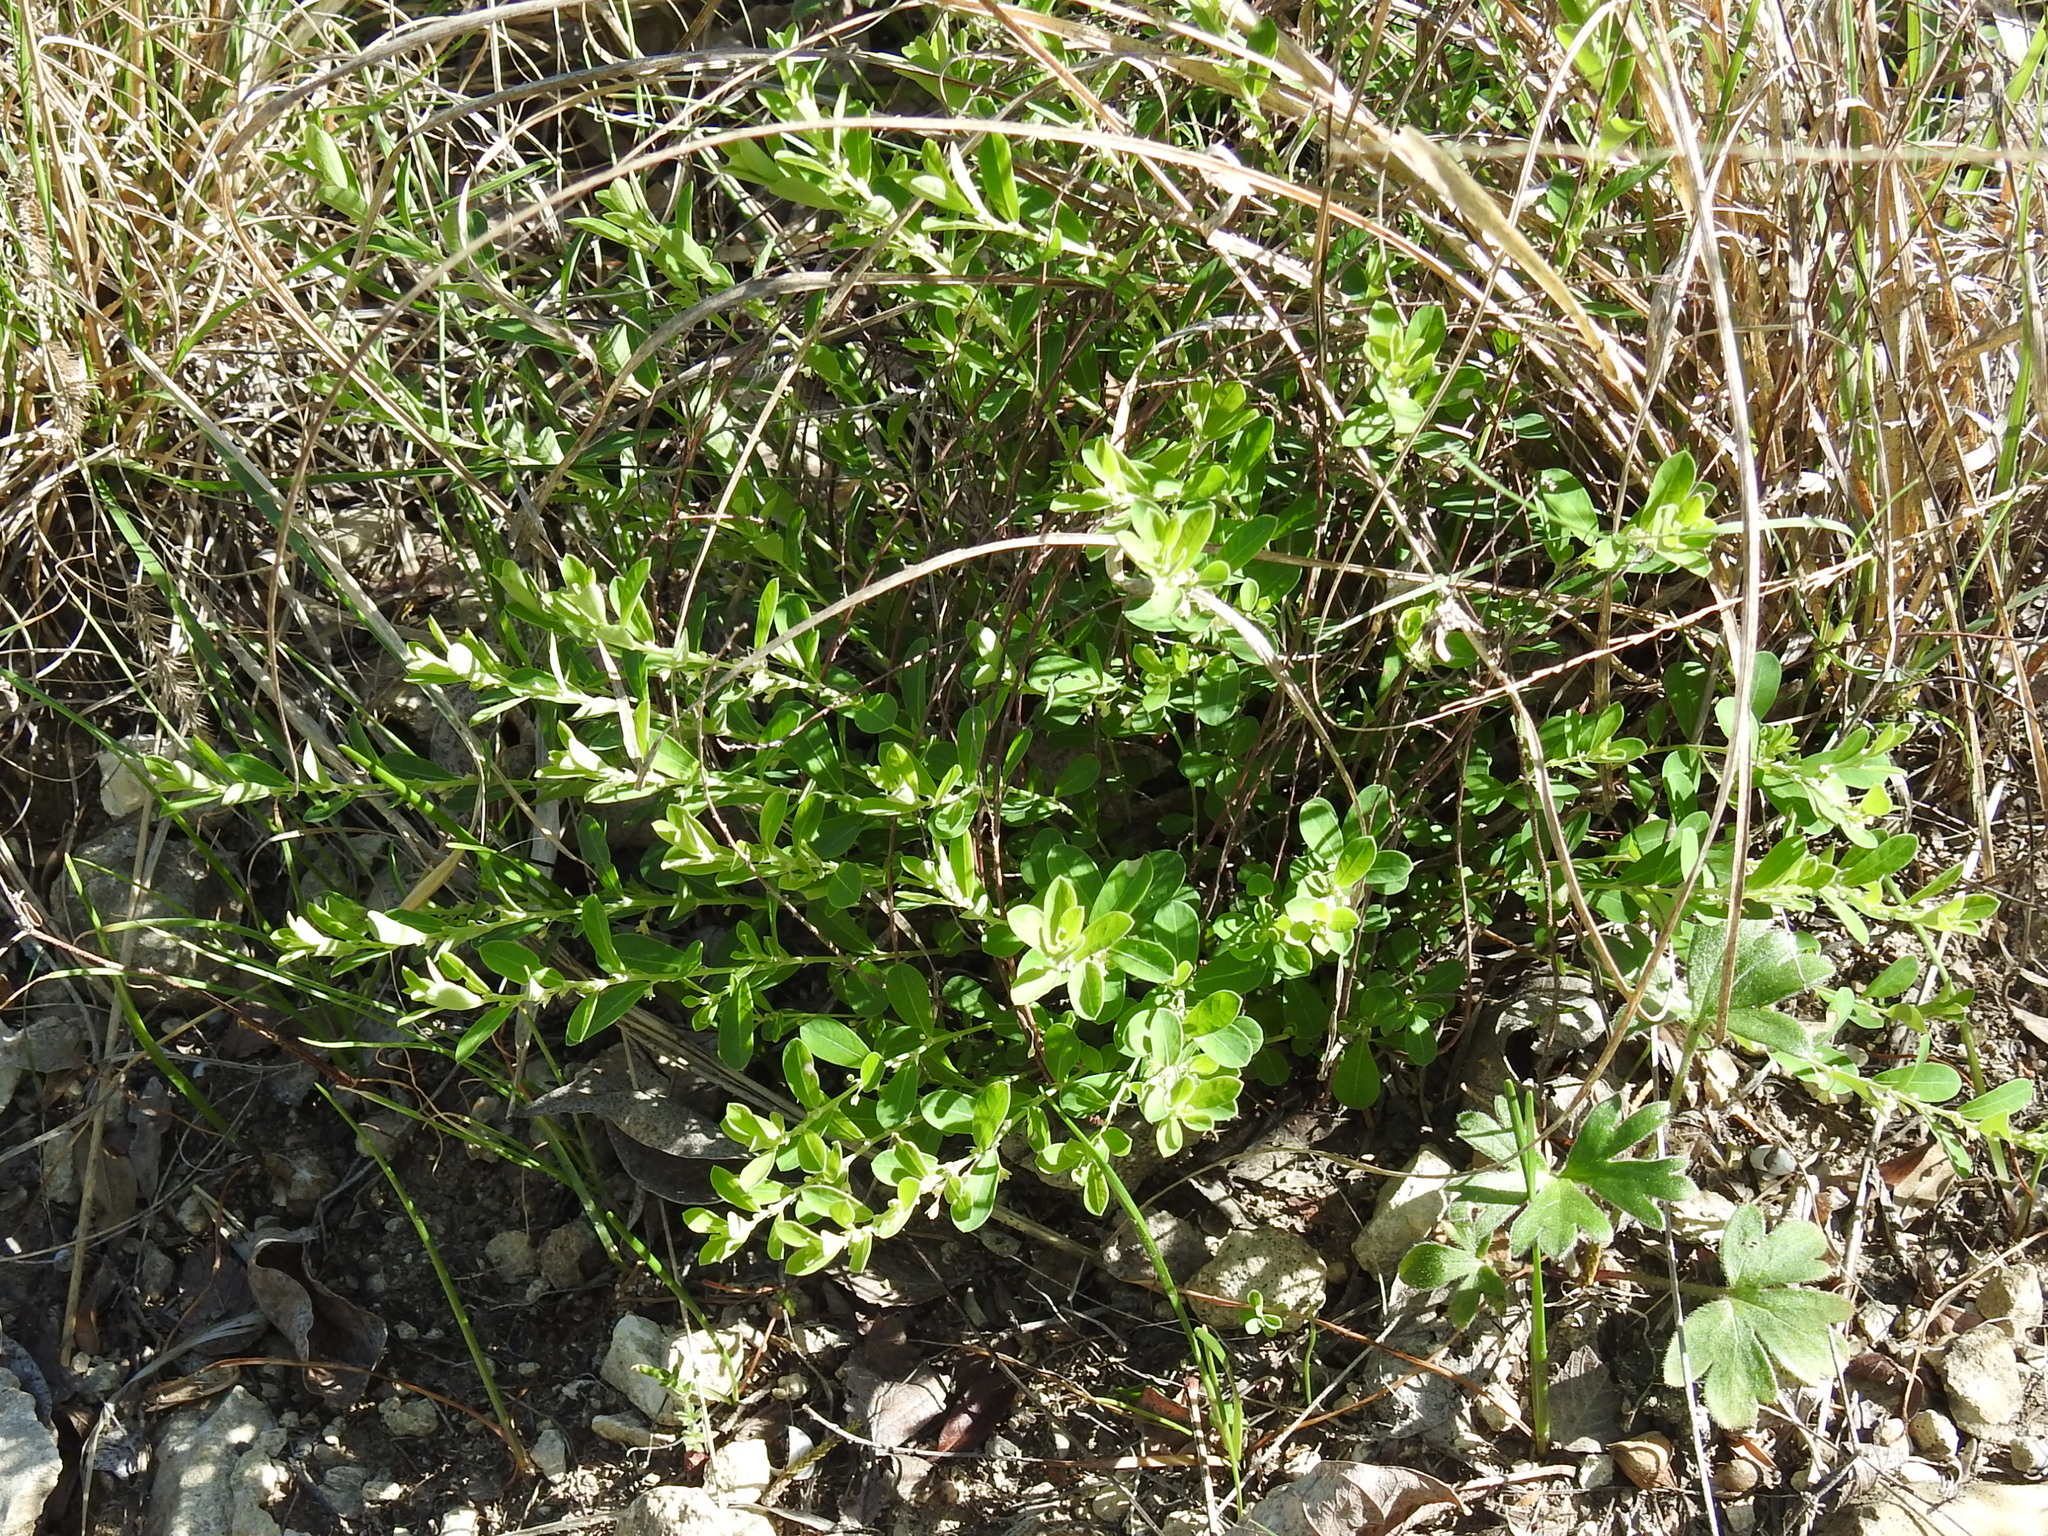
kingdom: Plantae
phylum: Tracheophyta
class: Magnoliopsida
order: Malpighiales
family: Phyllanthaceae
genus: Phyllanthus
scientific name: Phyllanthus polygonoides
